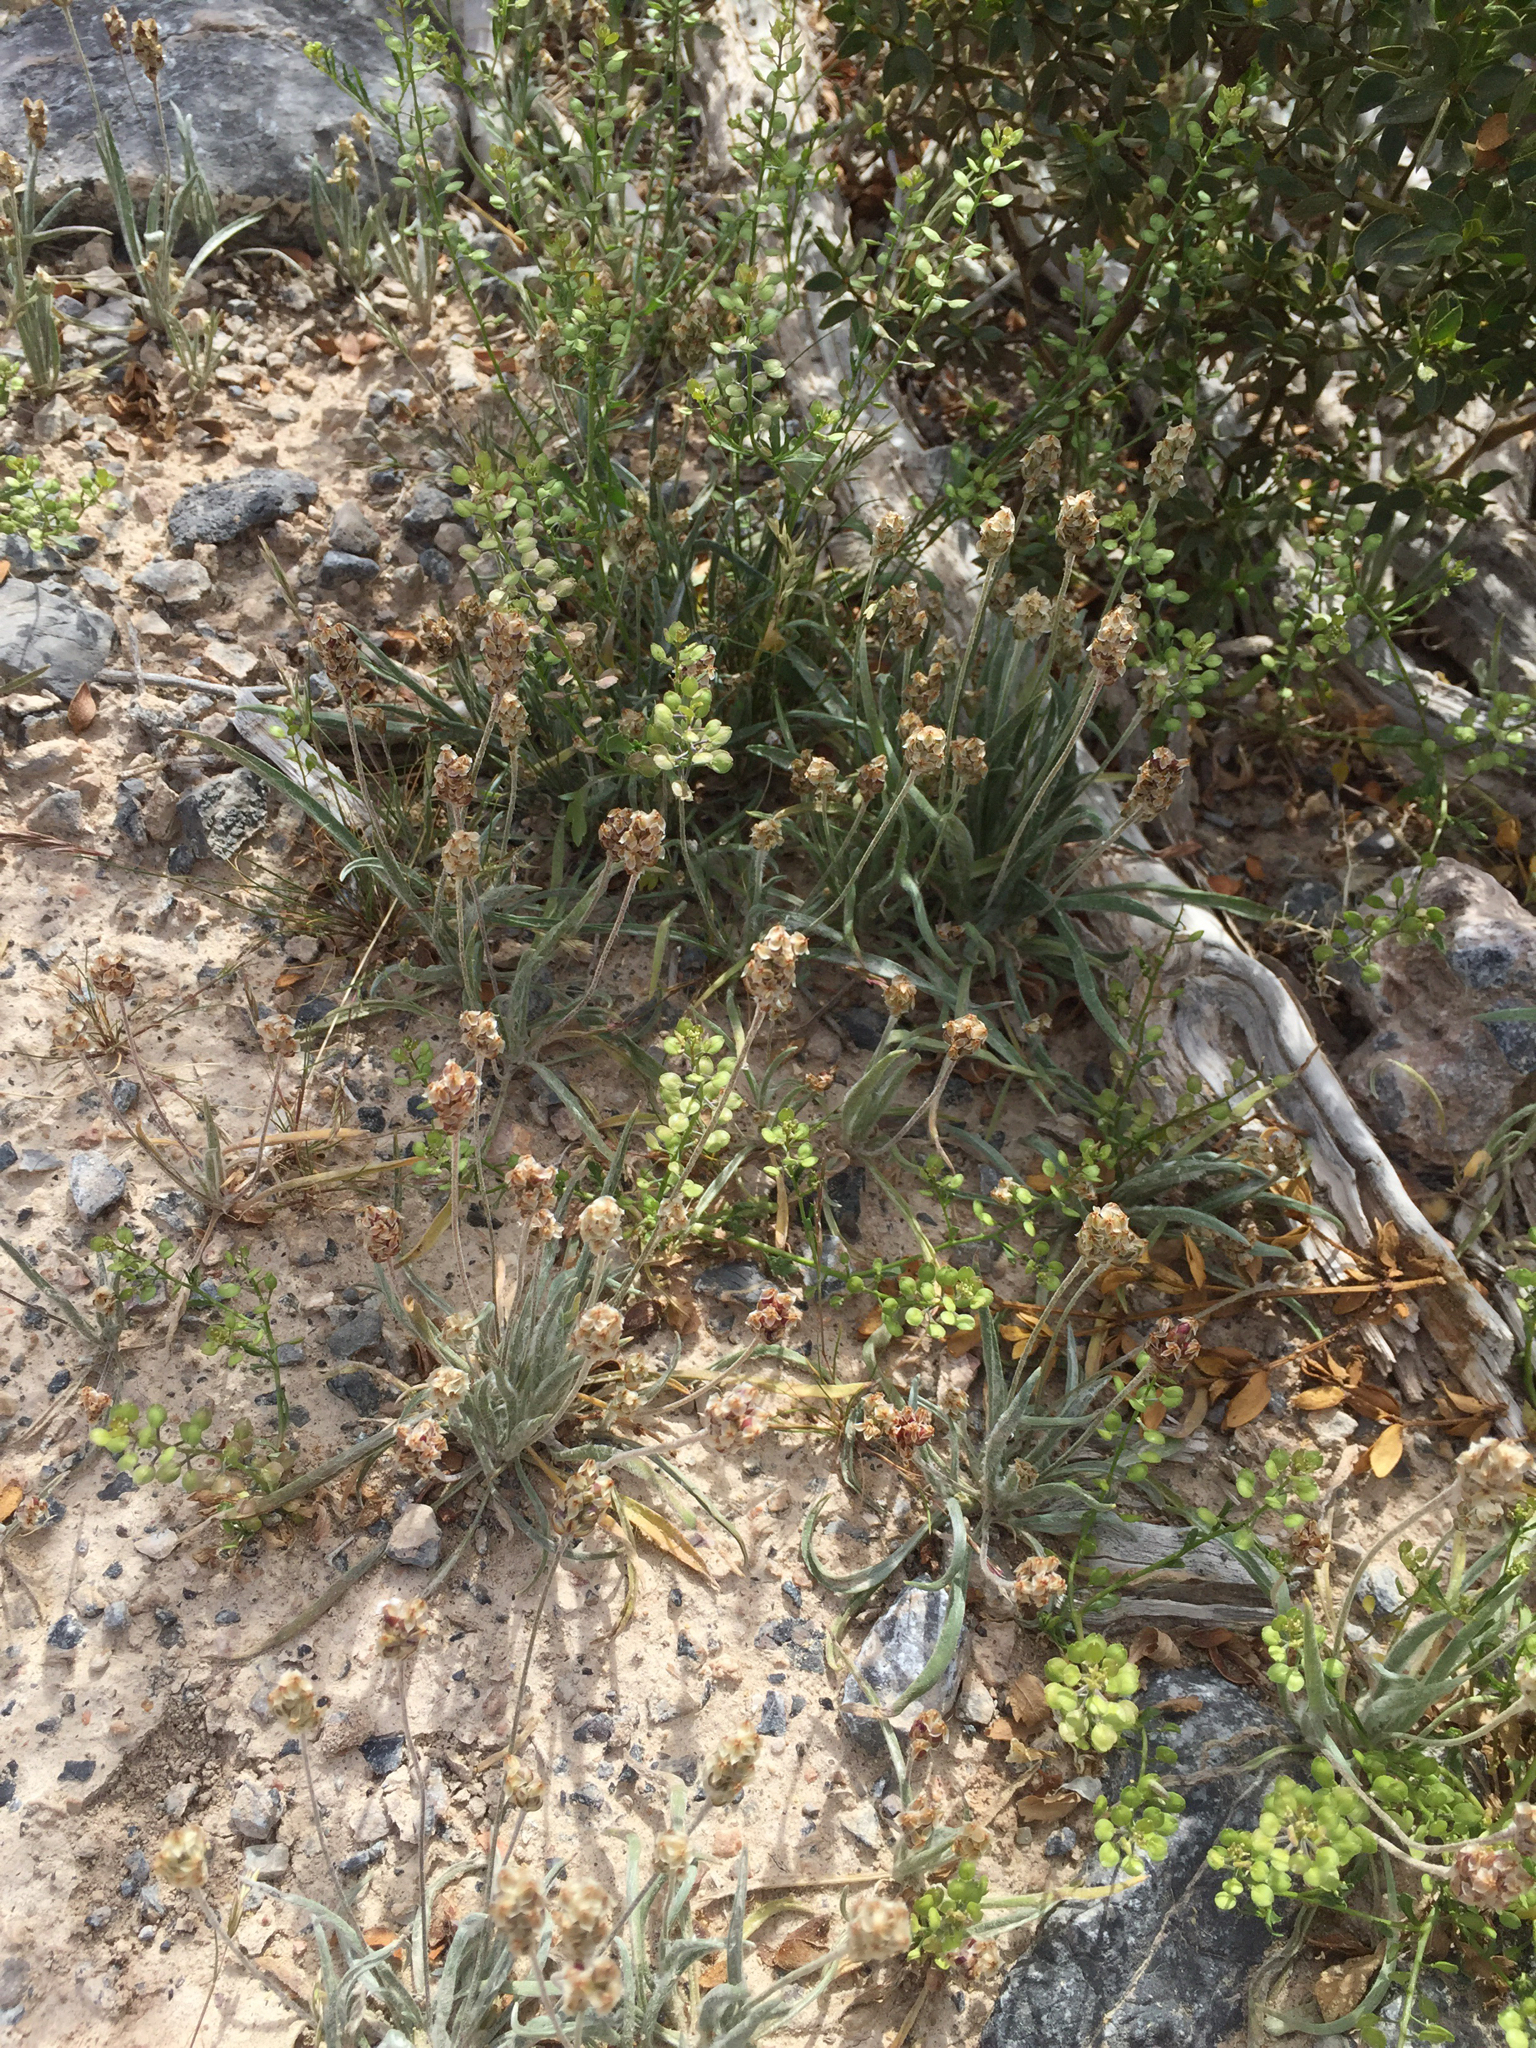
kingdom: Plantae
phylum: Tracheophyta
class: Magnoliopsida
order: Lamiales
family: Plantaginaceae
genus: Plantago
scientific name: Plantago ovata
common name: Blond plantain
